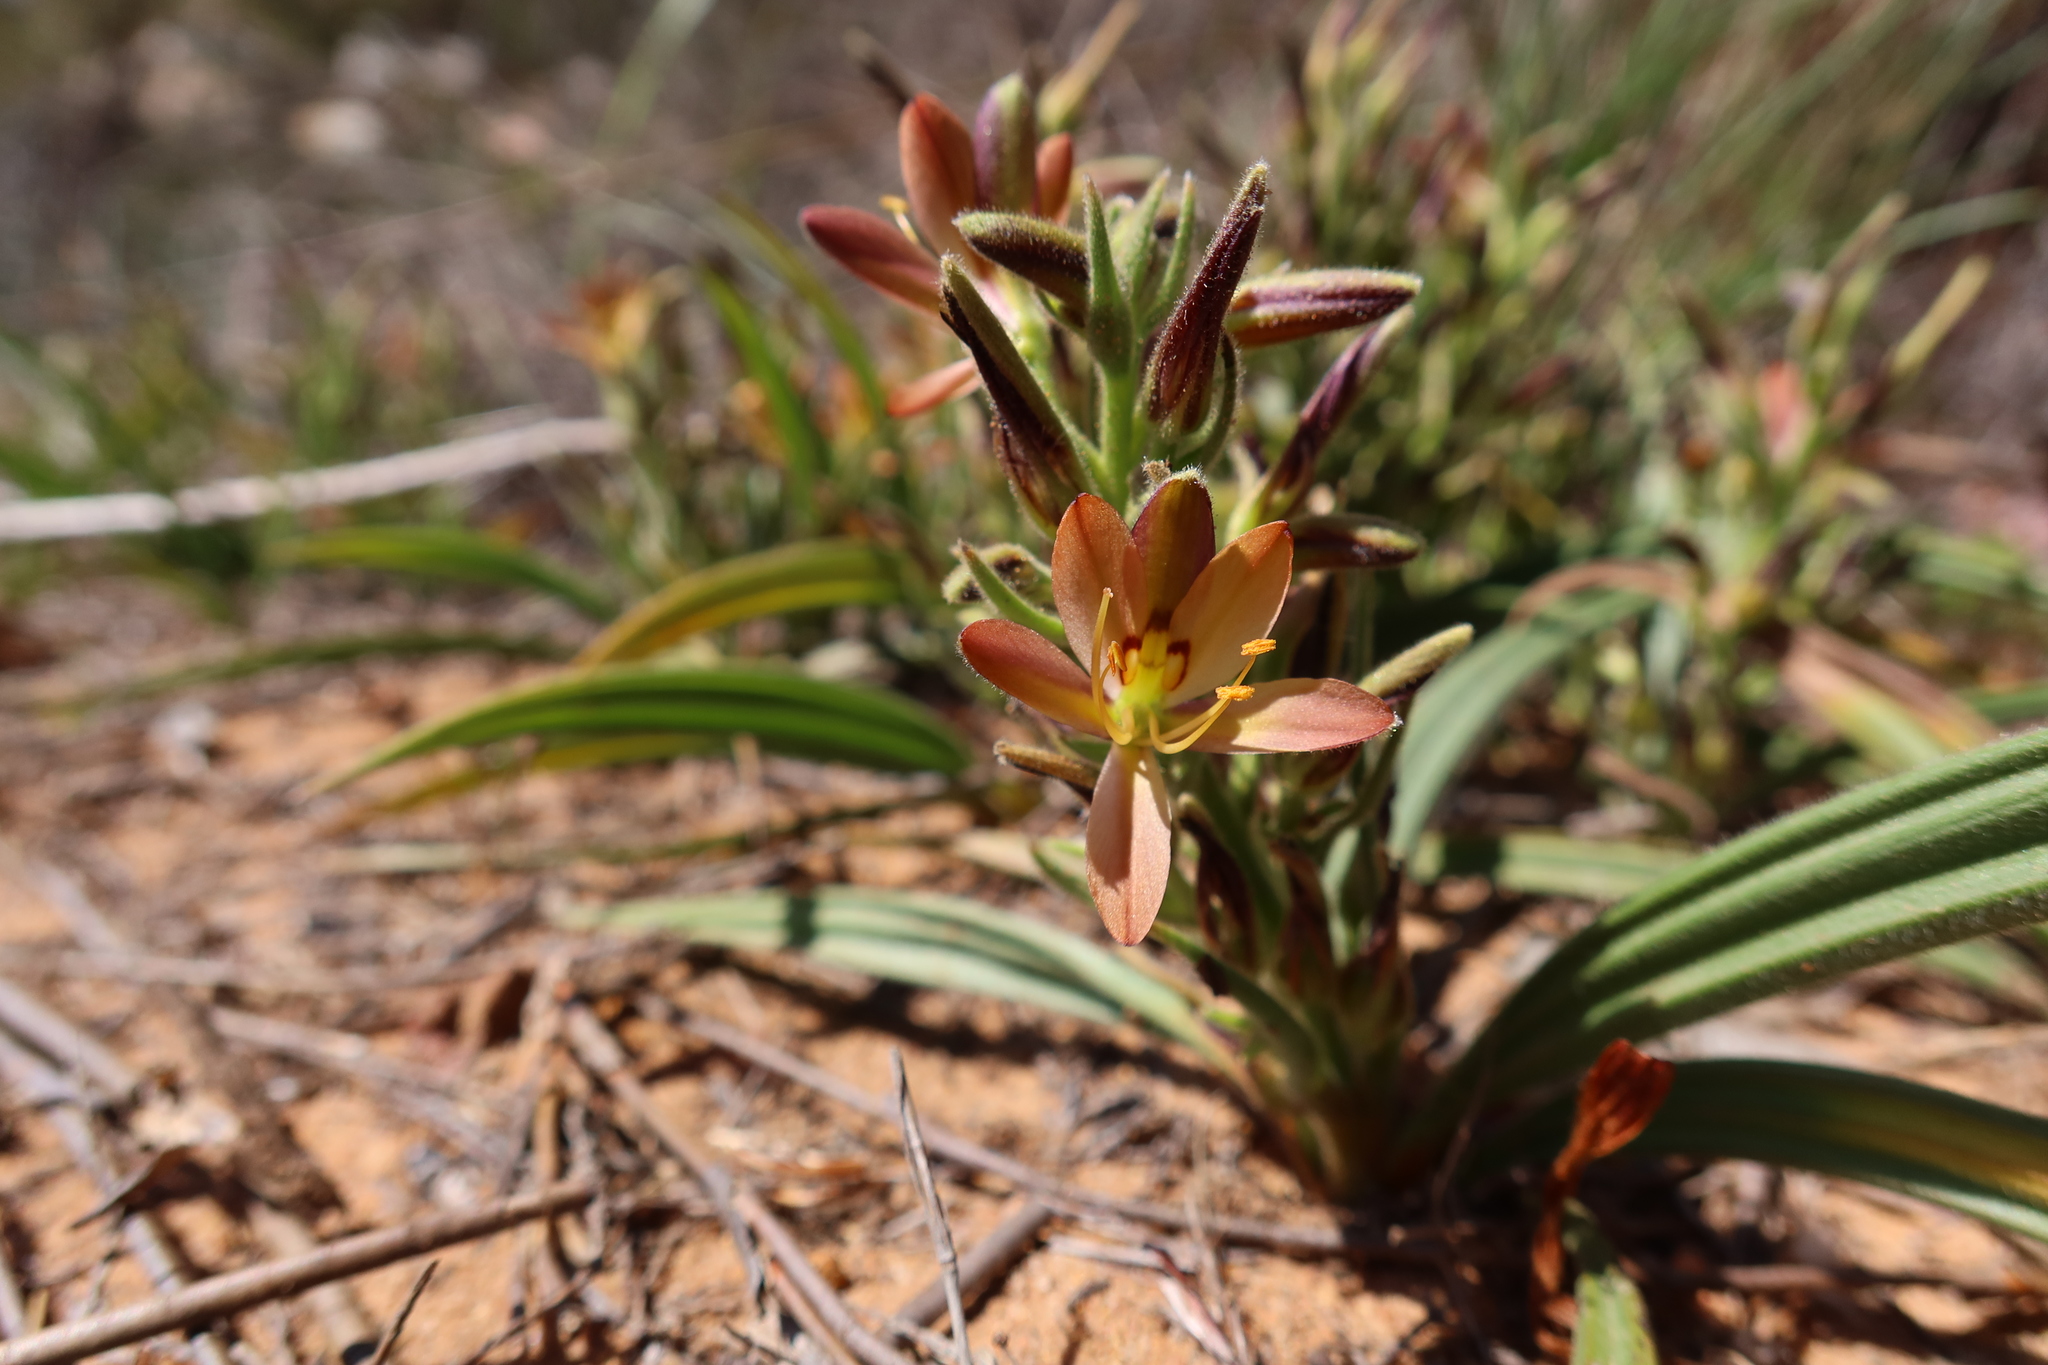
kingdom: Plantae
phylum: Tracheophyta
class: Liliopsida
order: Commelinales
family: Haemodoraceae
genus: Wachendorfia
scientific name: Wachendorfia multiflora
